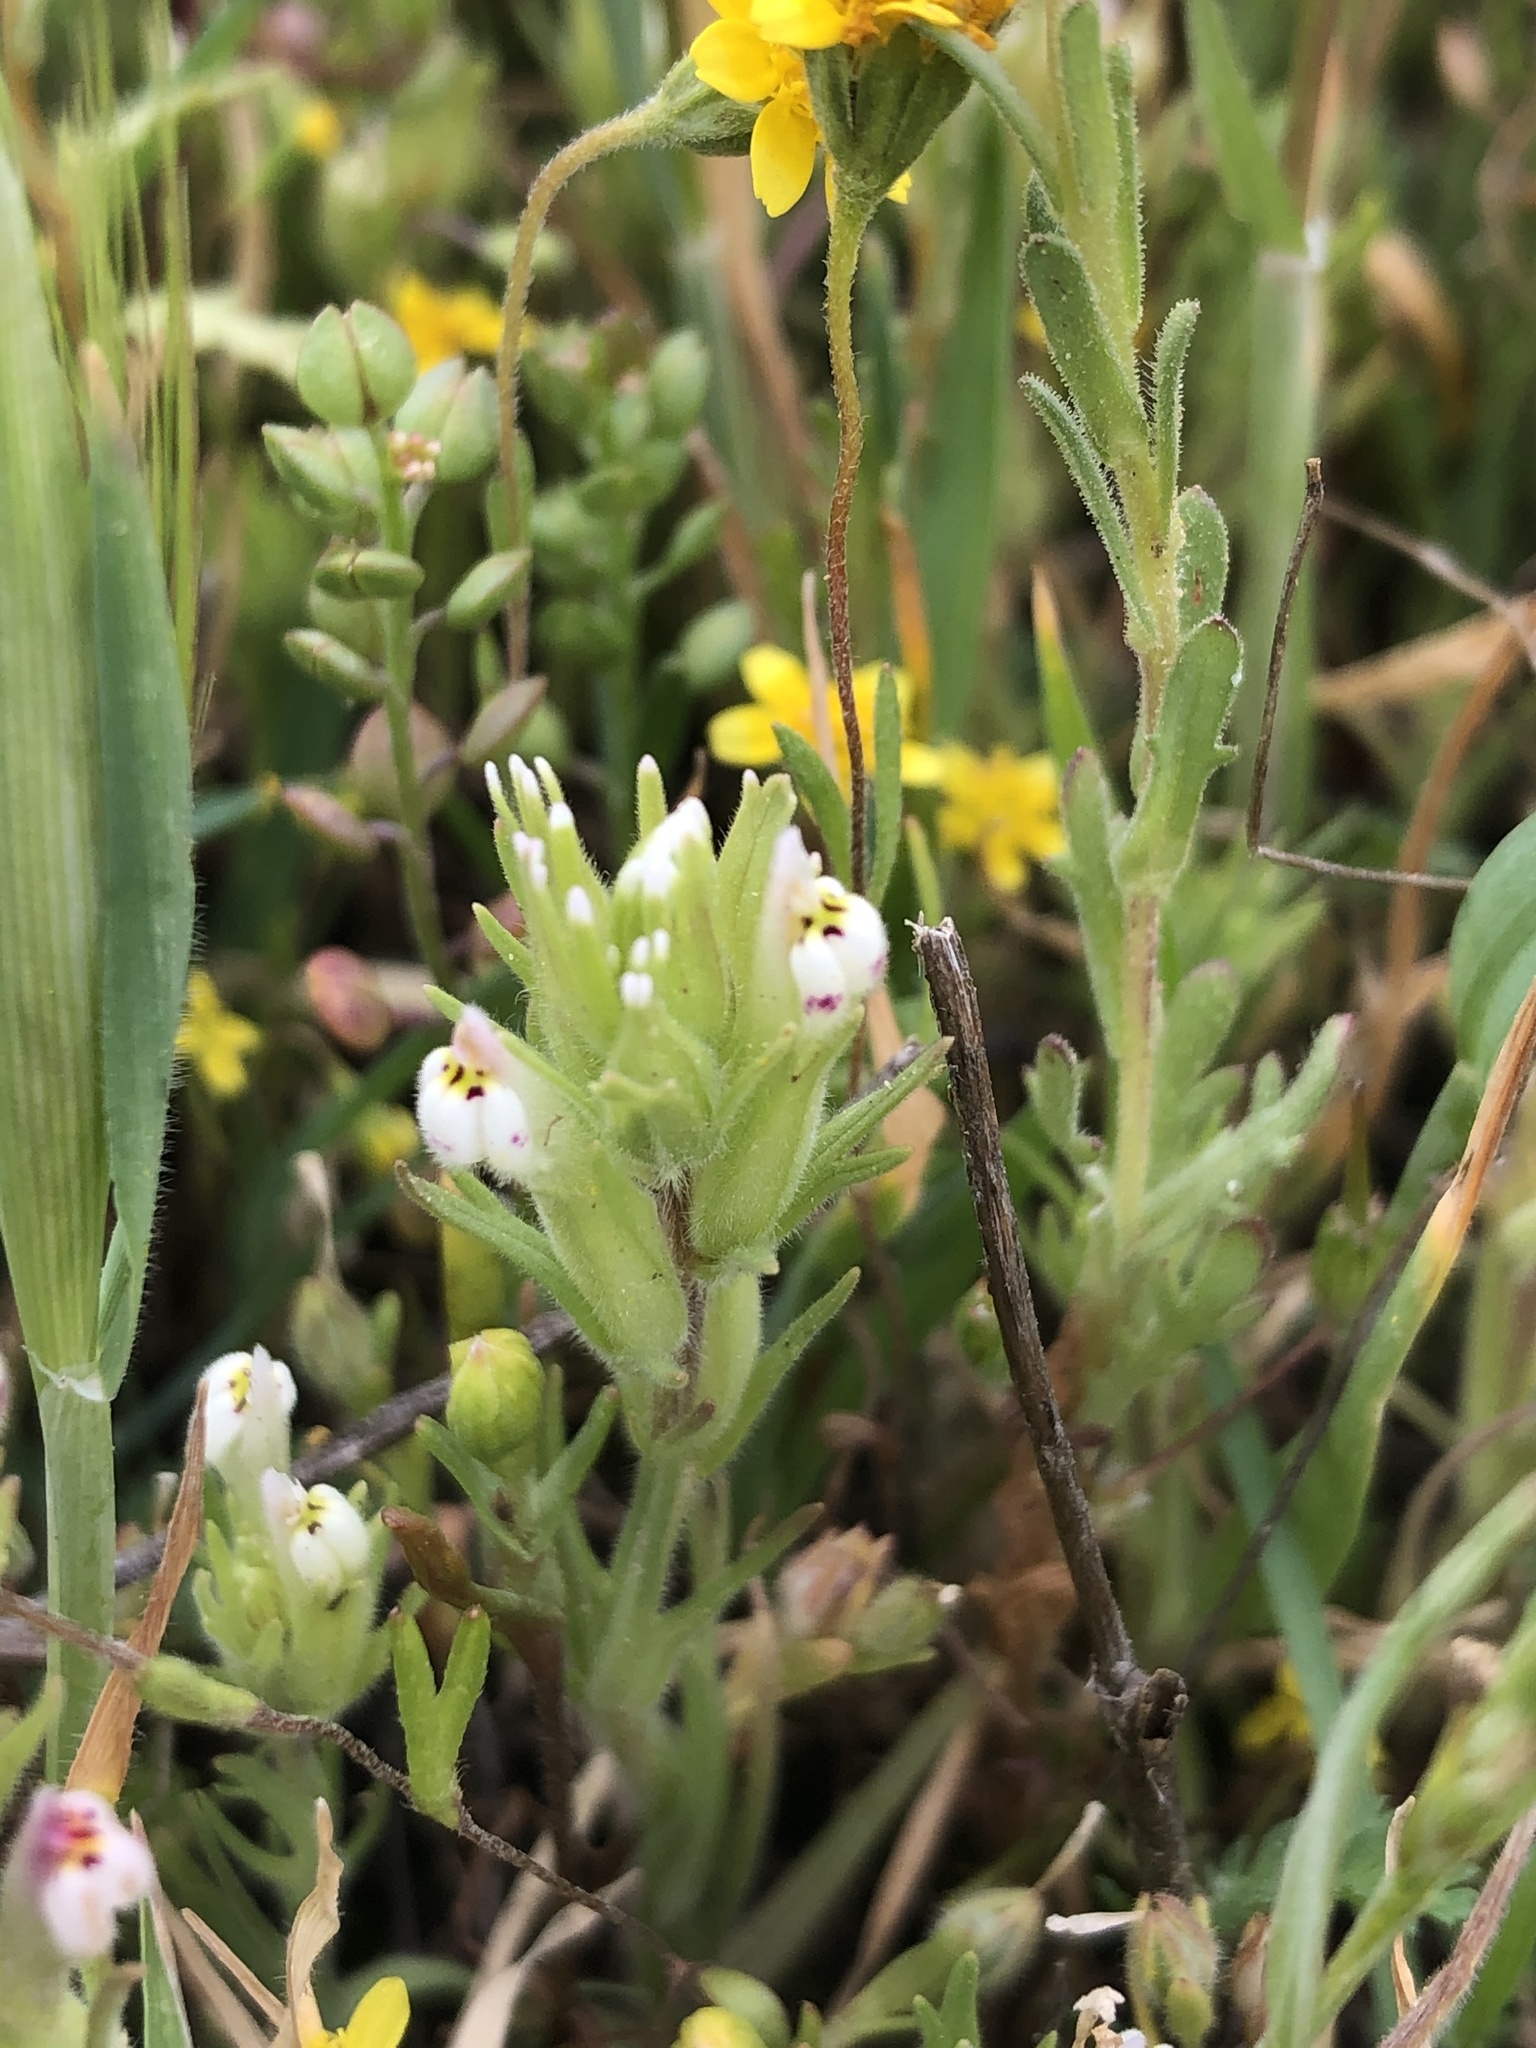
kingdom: Plantae
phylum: Tracheophyta
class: Magnoliopsida
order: Lamiales
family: Orobanchaceae
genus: Castilleja
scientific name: Castilleja densiflora
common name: Dense-flower indian paintbrush
